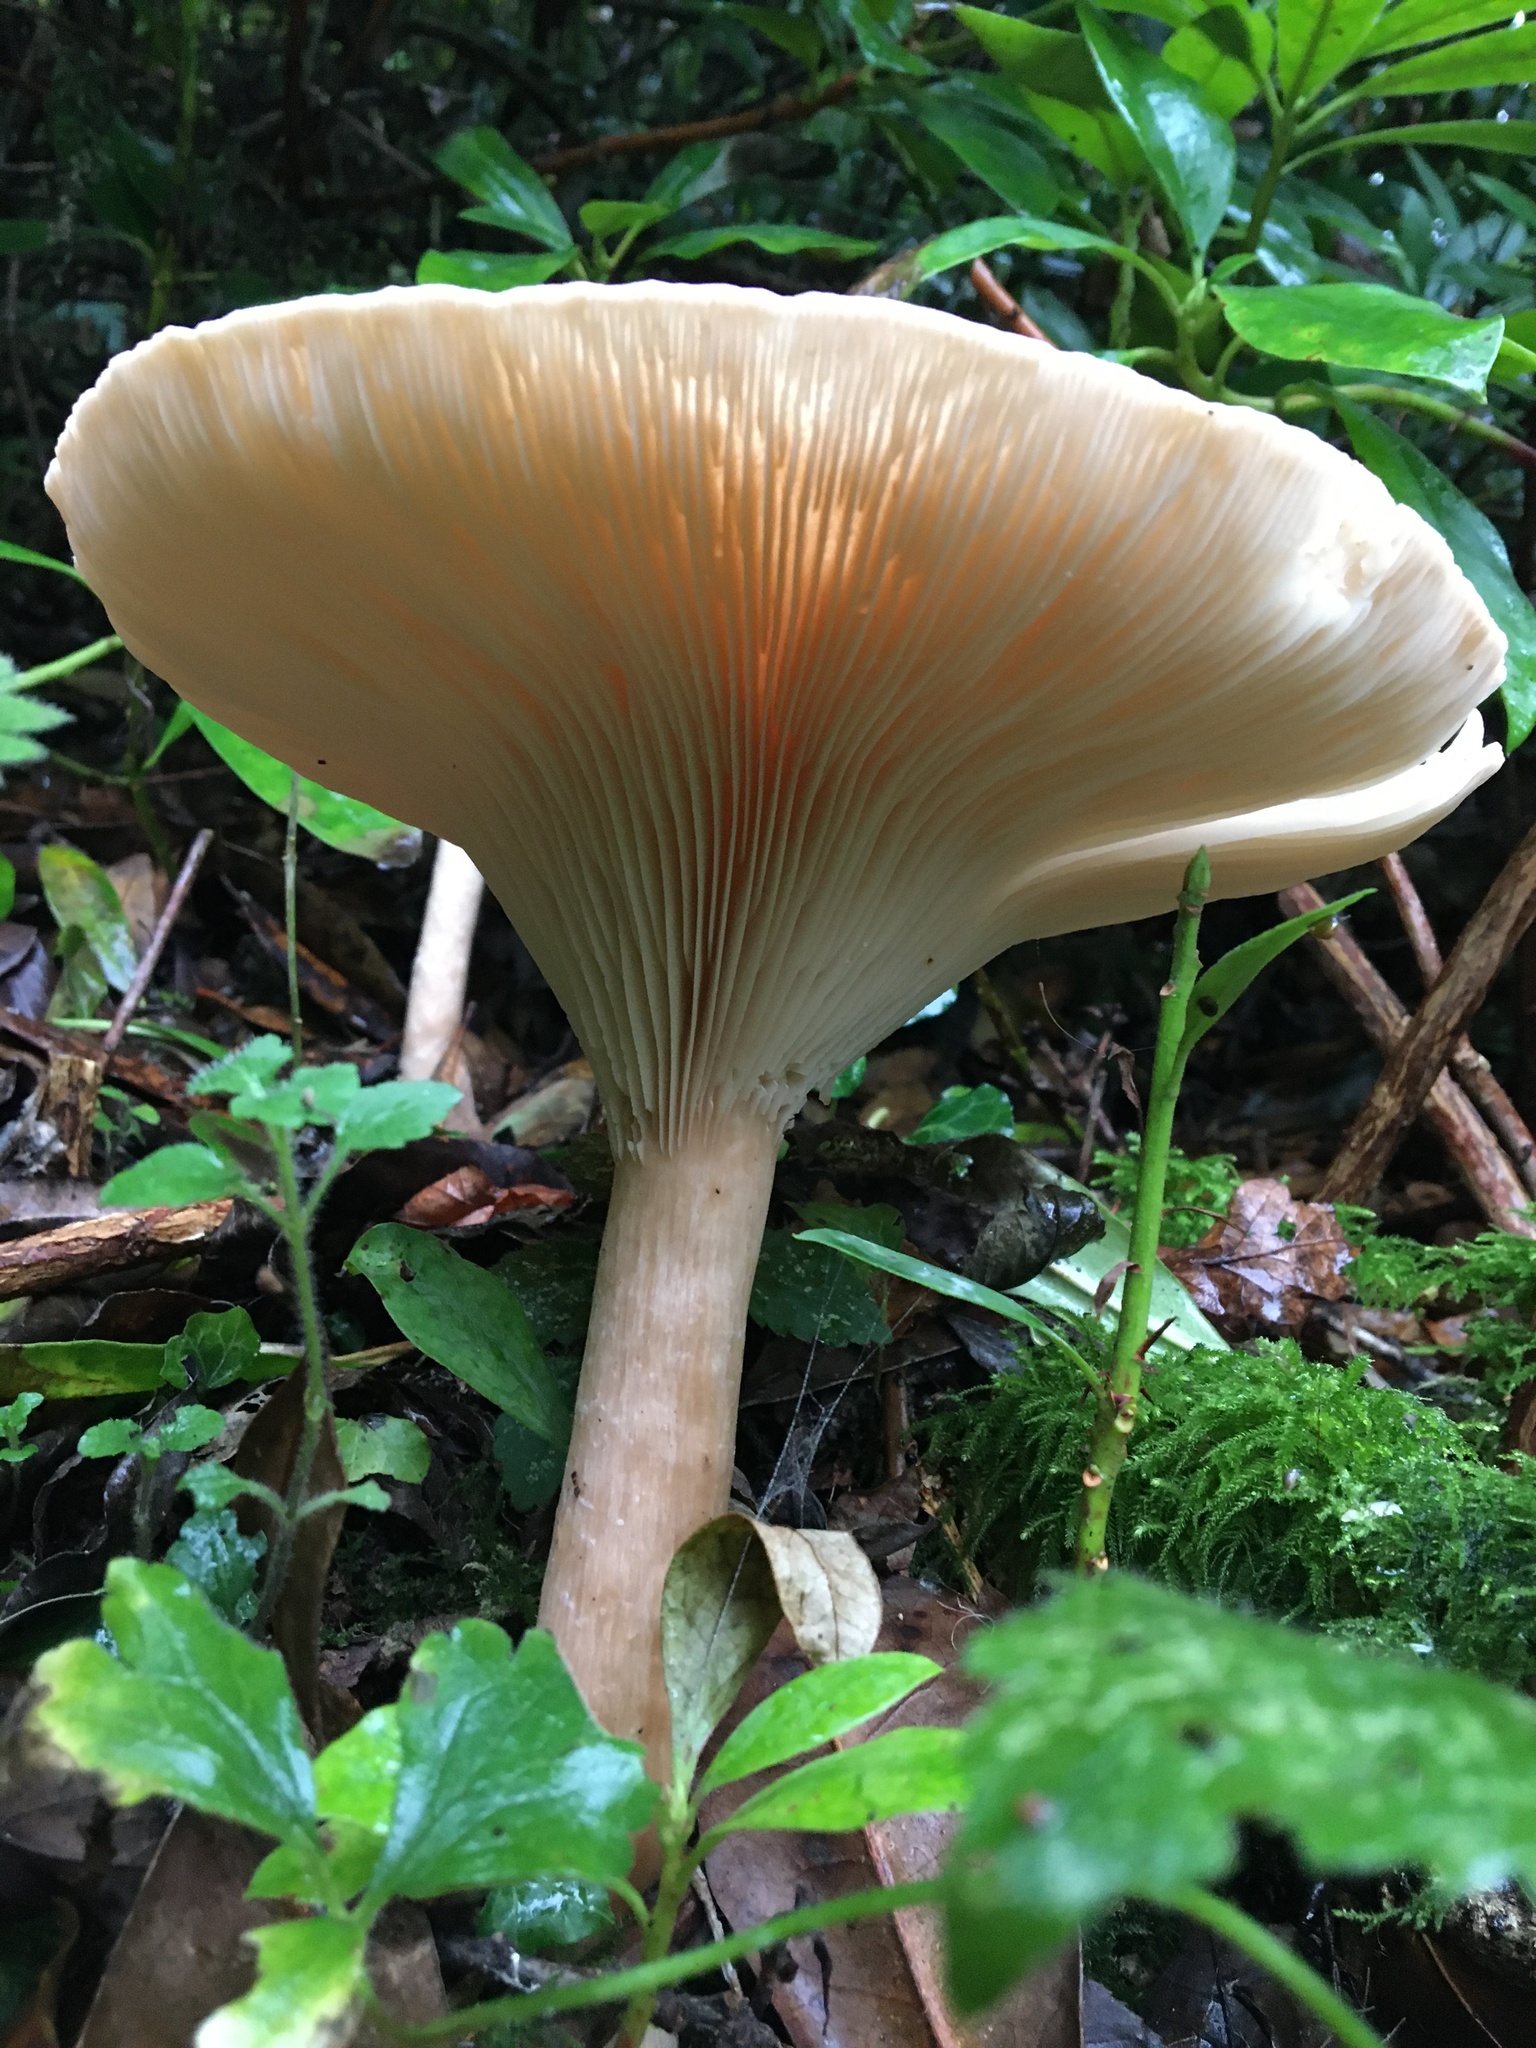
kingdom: Fungi
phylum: Basidiomycota
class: Agaricomycetes
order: Agaricales
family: Tricholomataceae
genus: Infundibulicybe
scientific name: Infundibulicybe geotropa
